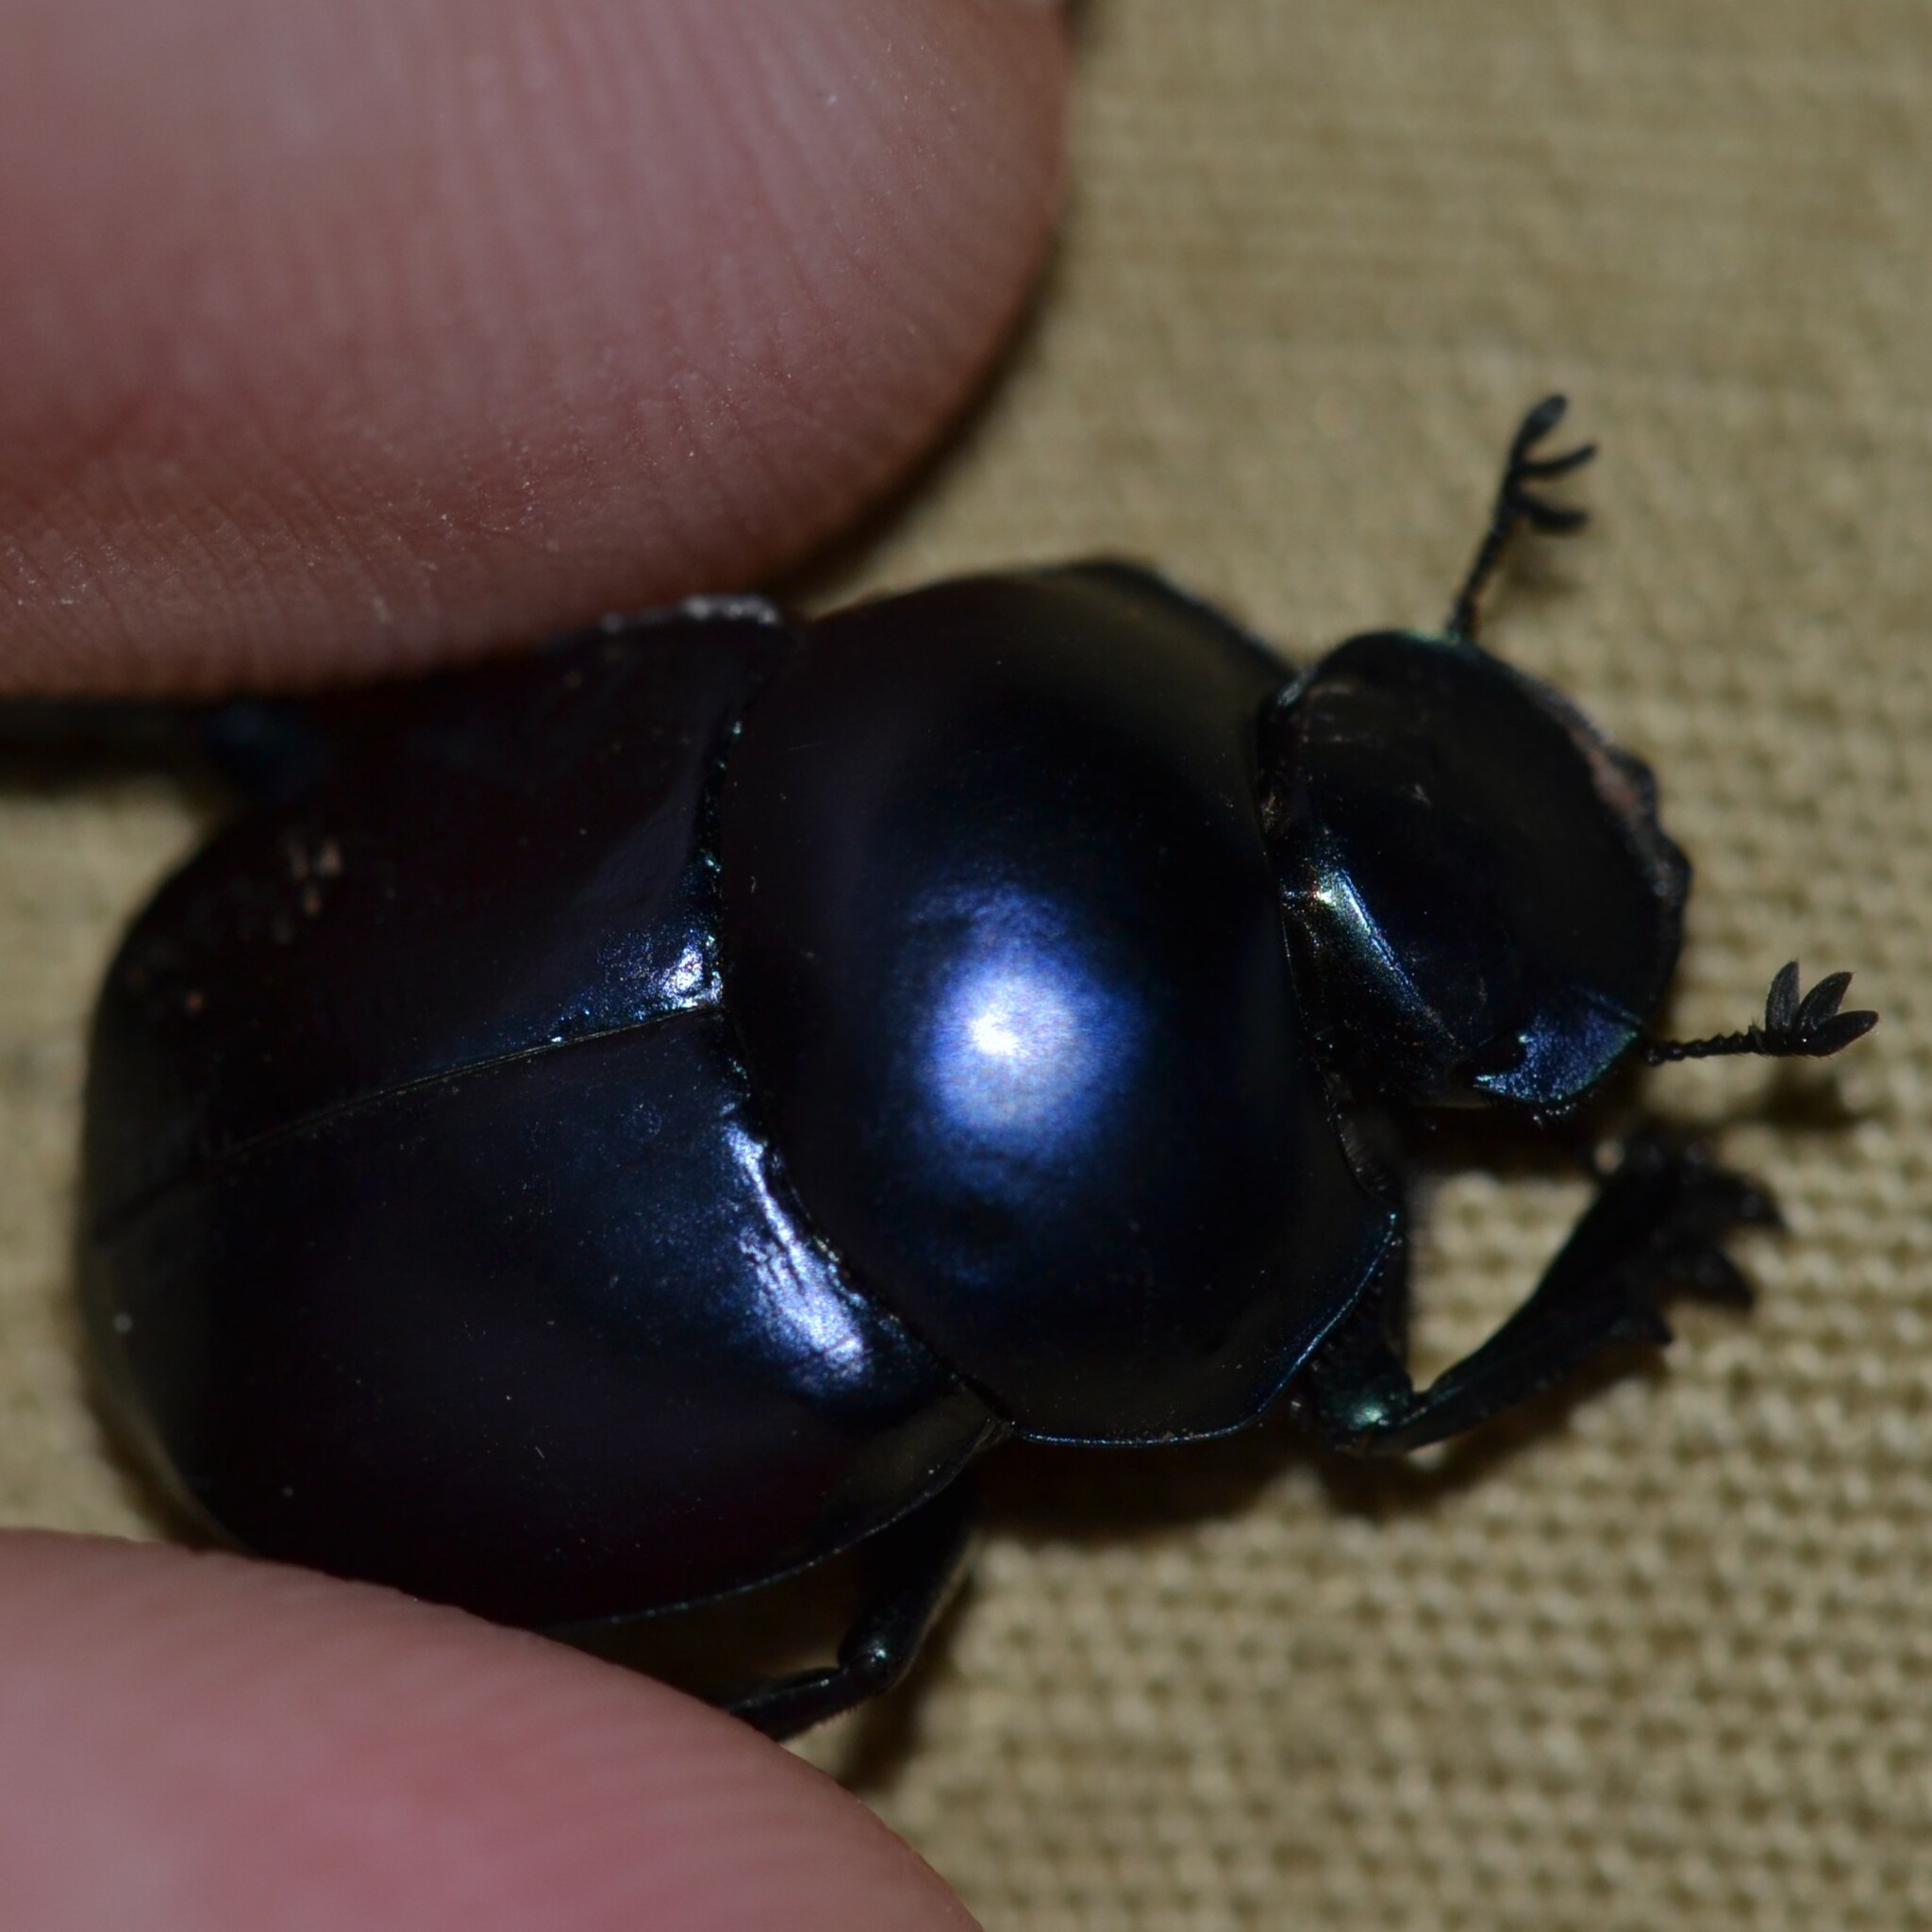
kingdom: Animalia
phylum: Arthropoda
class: Insecta
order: Coleoptera
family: Scarabaeidae
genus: Canthon
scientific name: Canthon humectus
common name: Tumblebug
